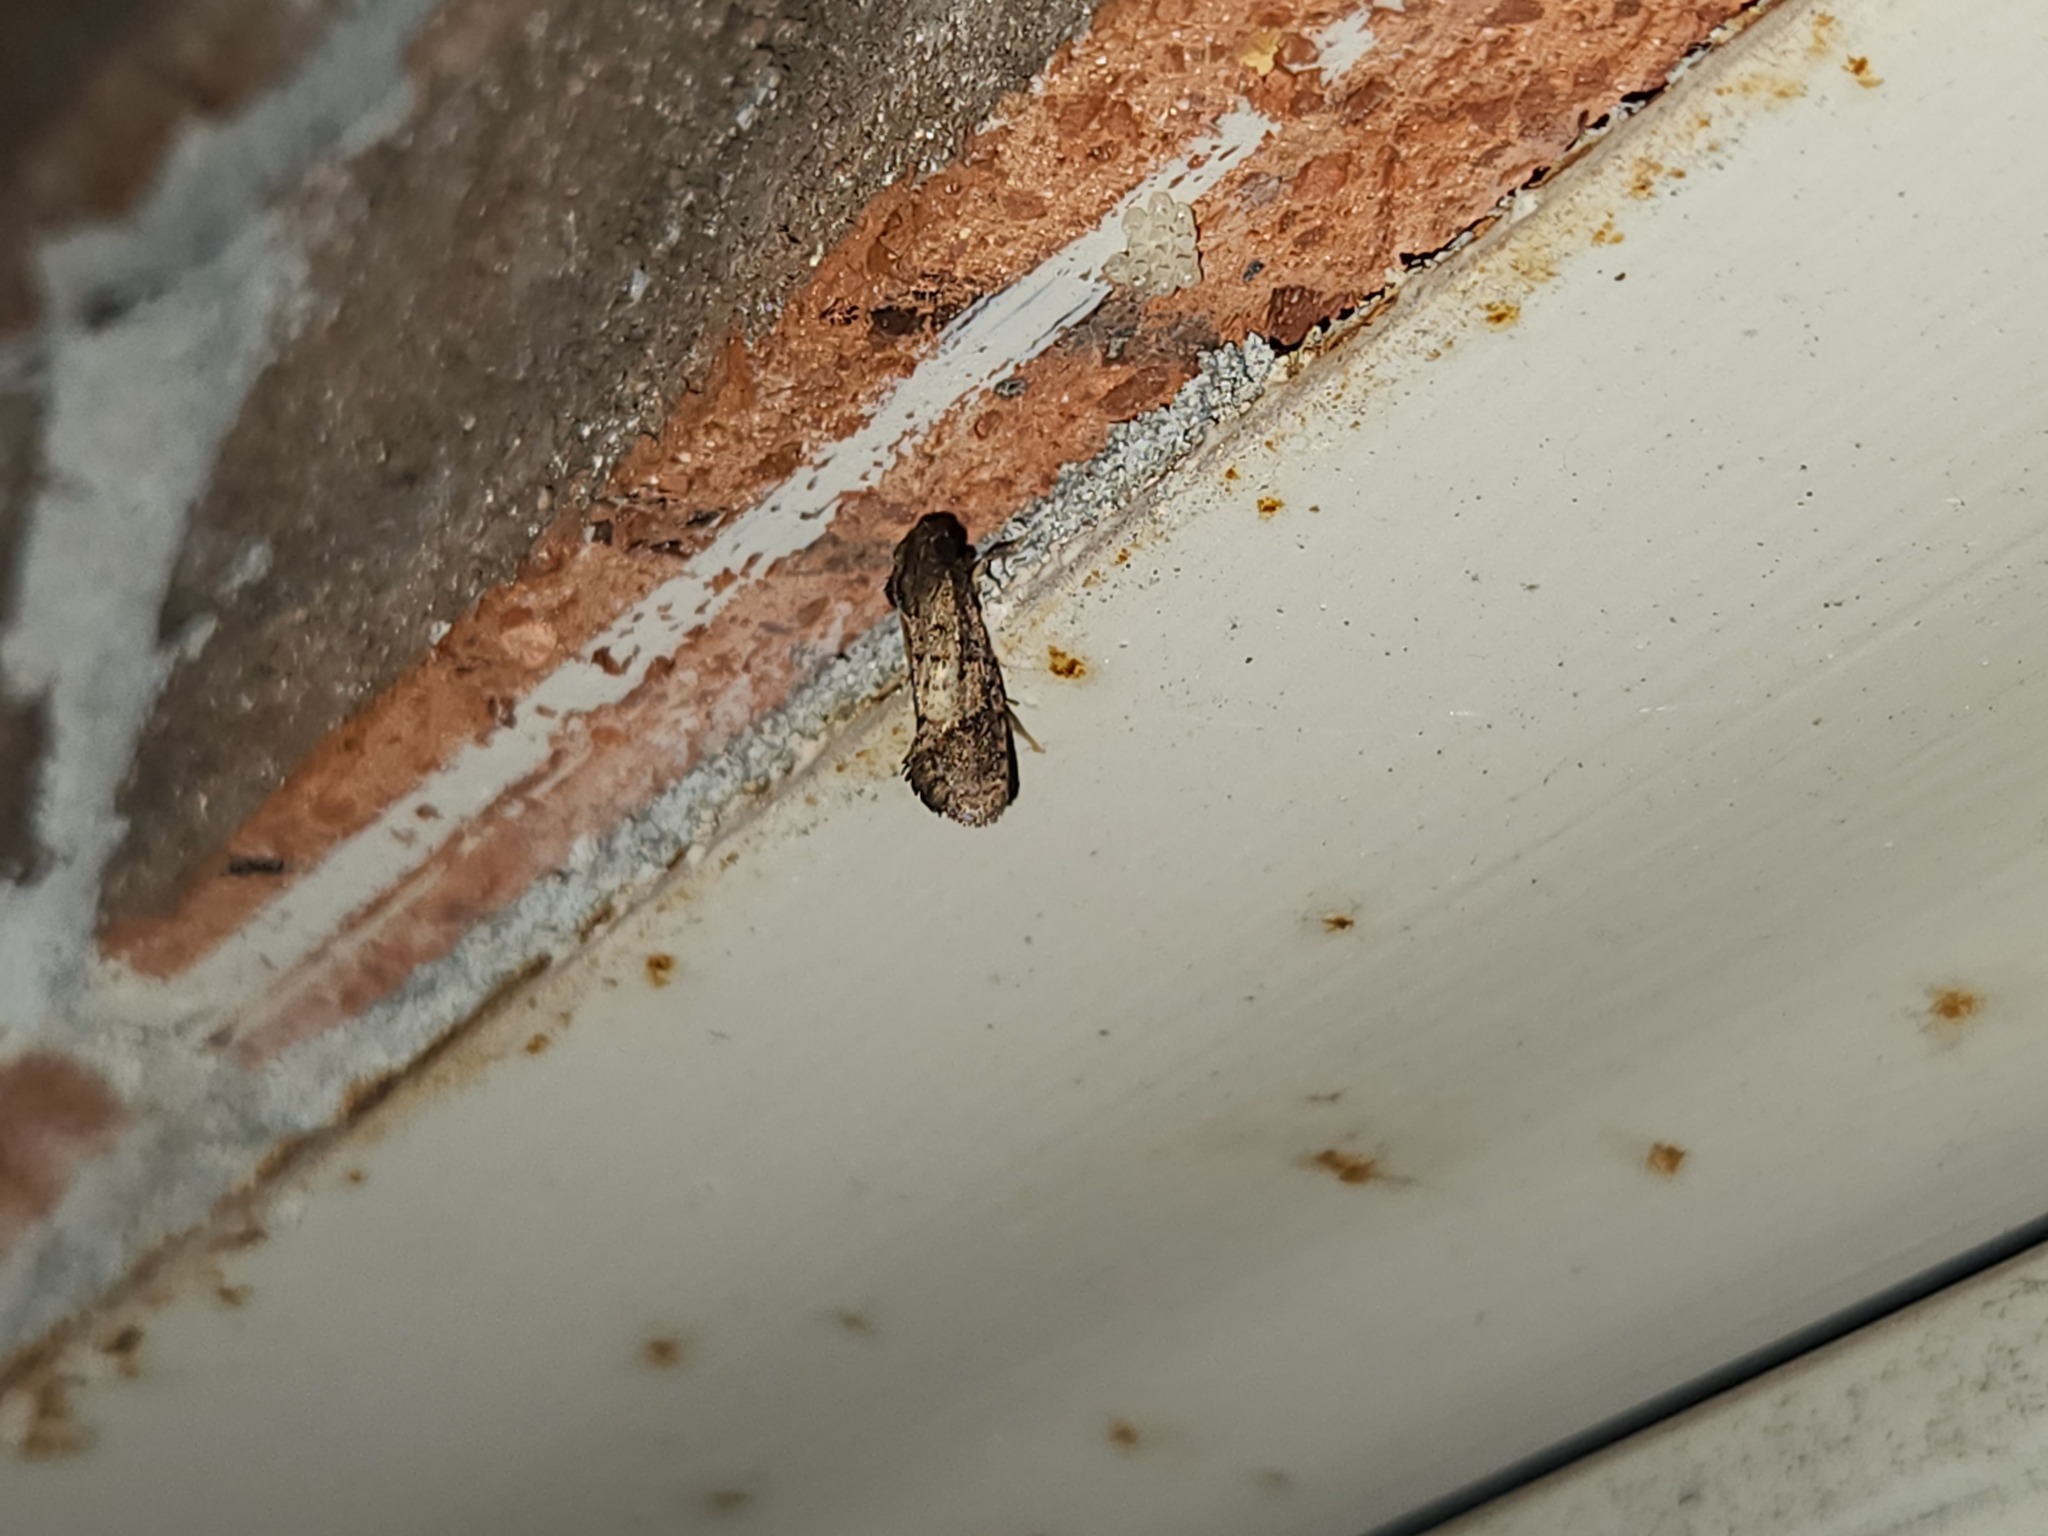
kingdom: Animalia
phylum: Arthropoda
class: Insecta
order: Lepidoptera
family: Tineidae
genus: Acrolophus
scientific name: Acrolophus texanella
